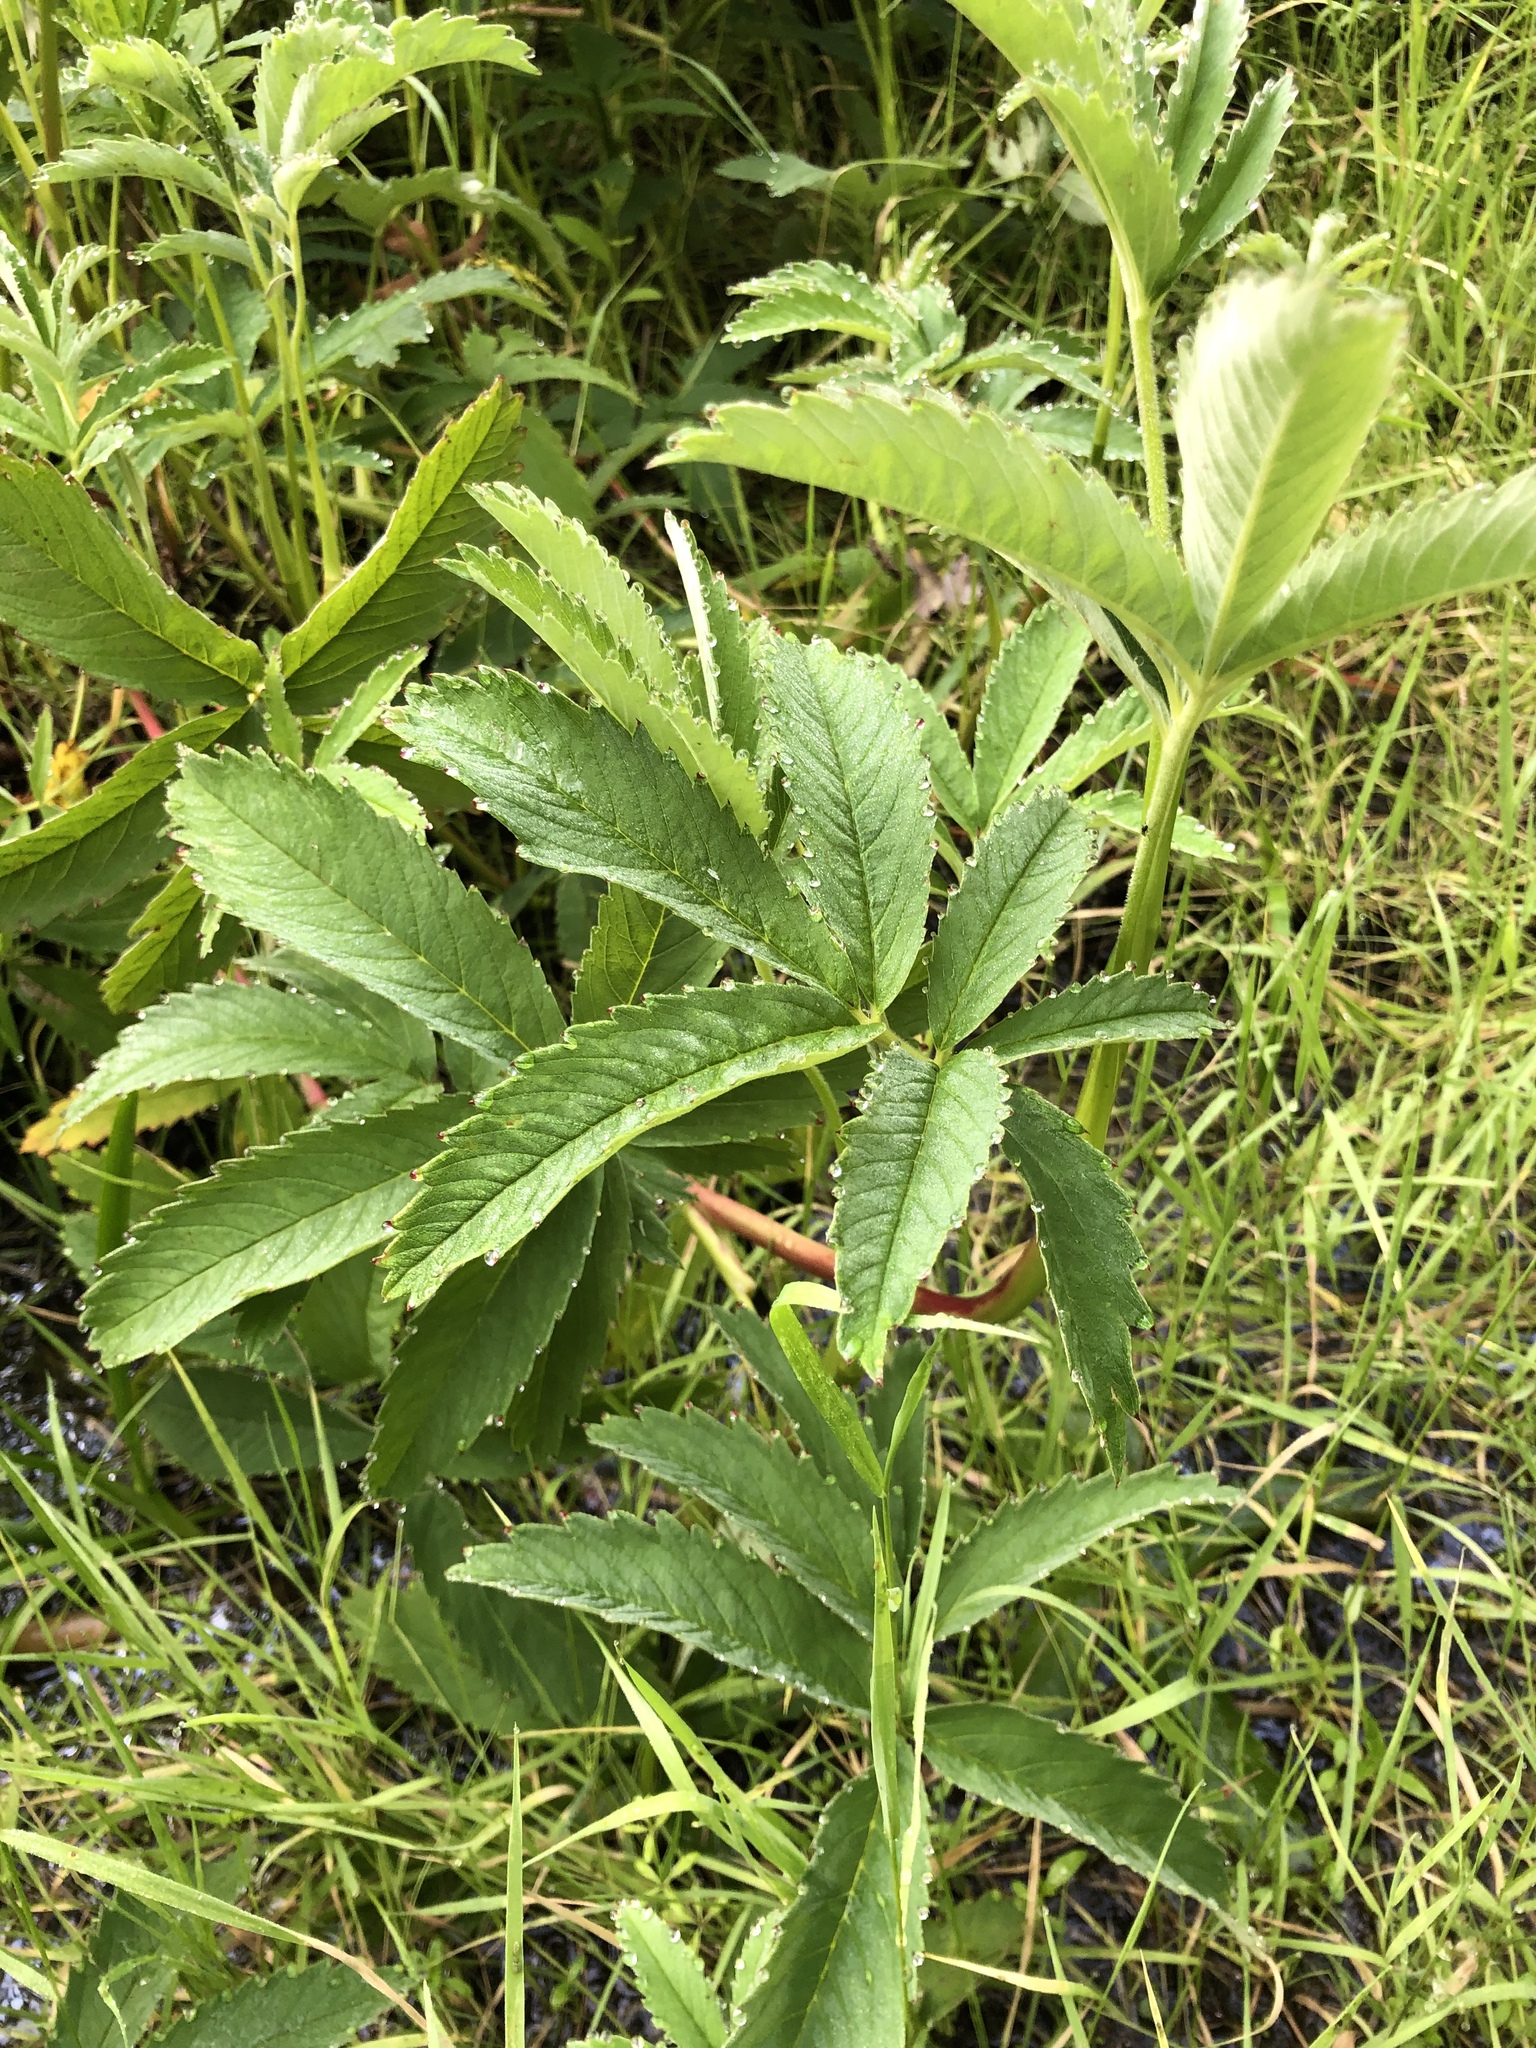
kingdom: Plantae
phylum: Tracheophyta
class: Magnoliopsida
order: Rosales
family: Rosaceae
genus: Comarum
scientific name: Comarum palustre
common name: Marsh cinquefoil
